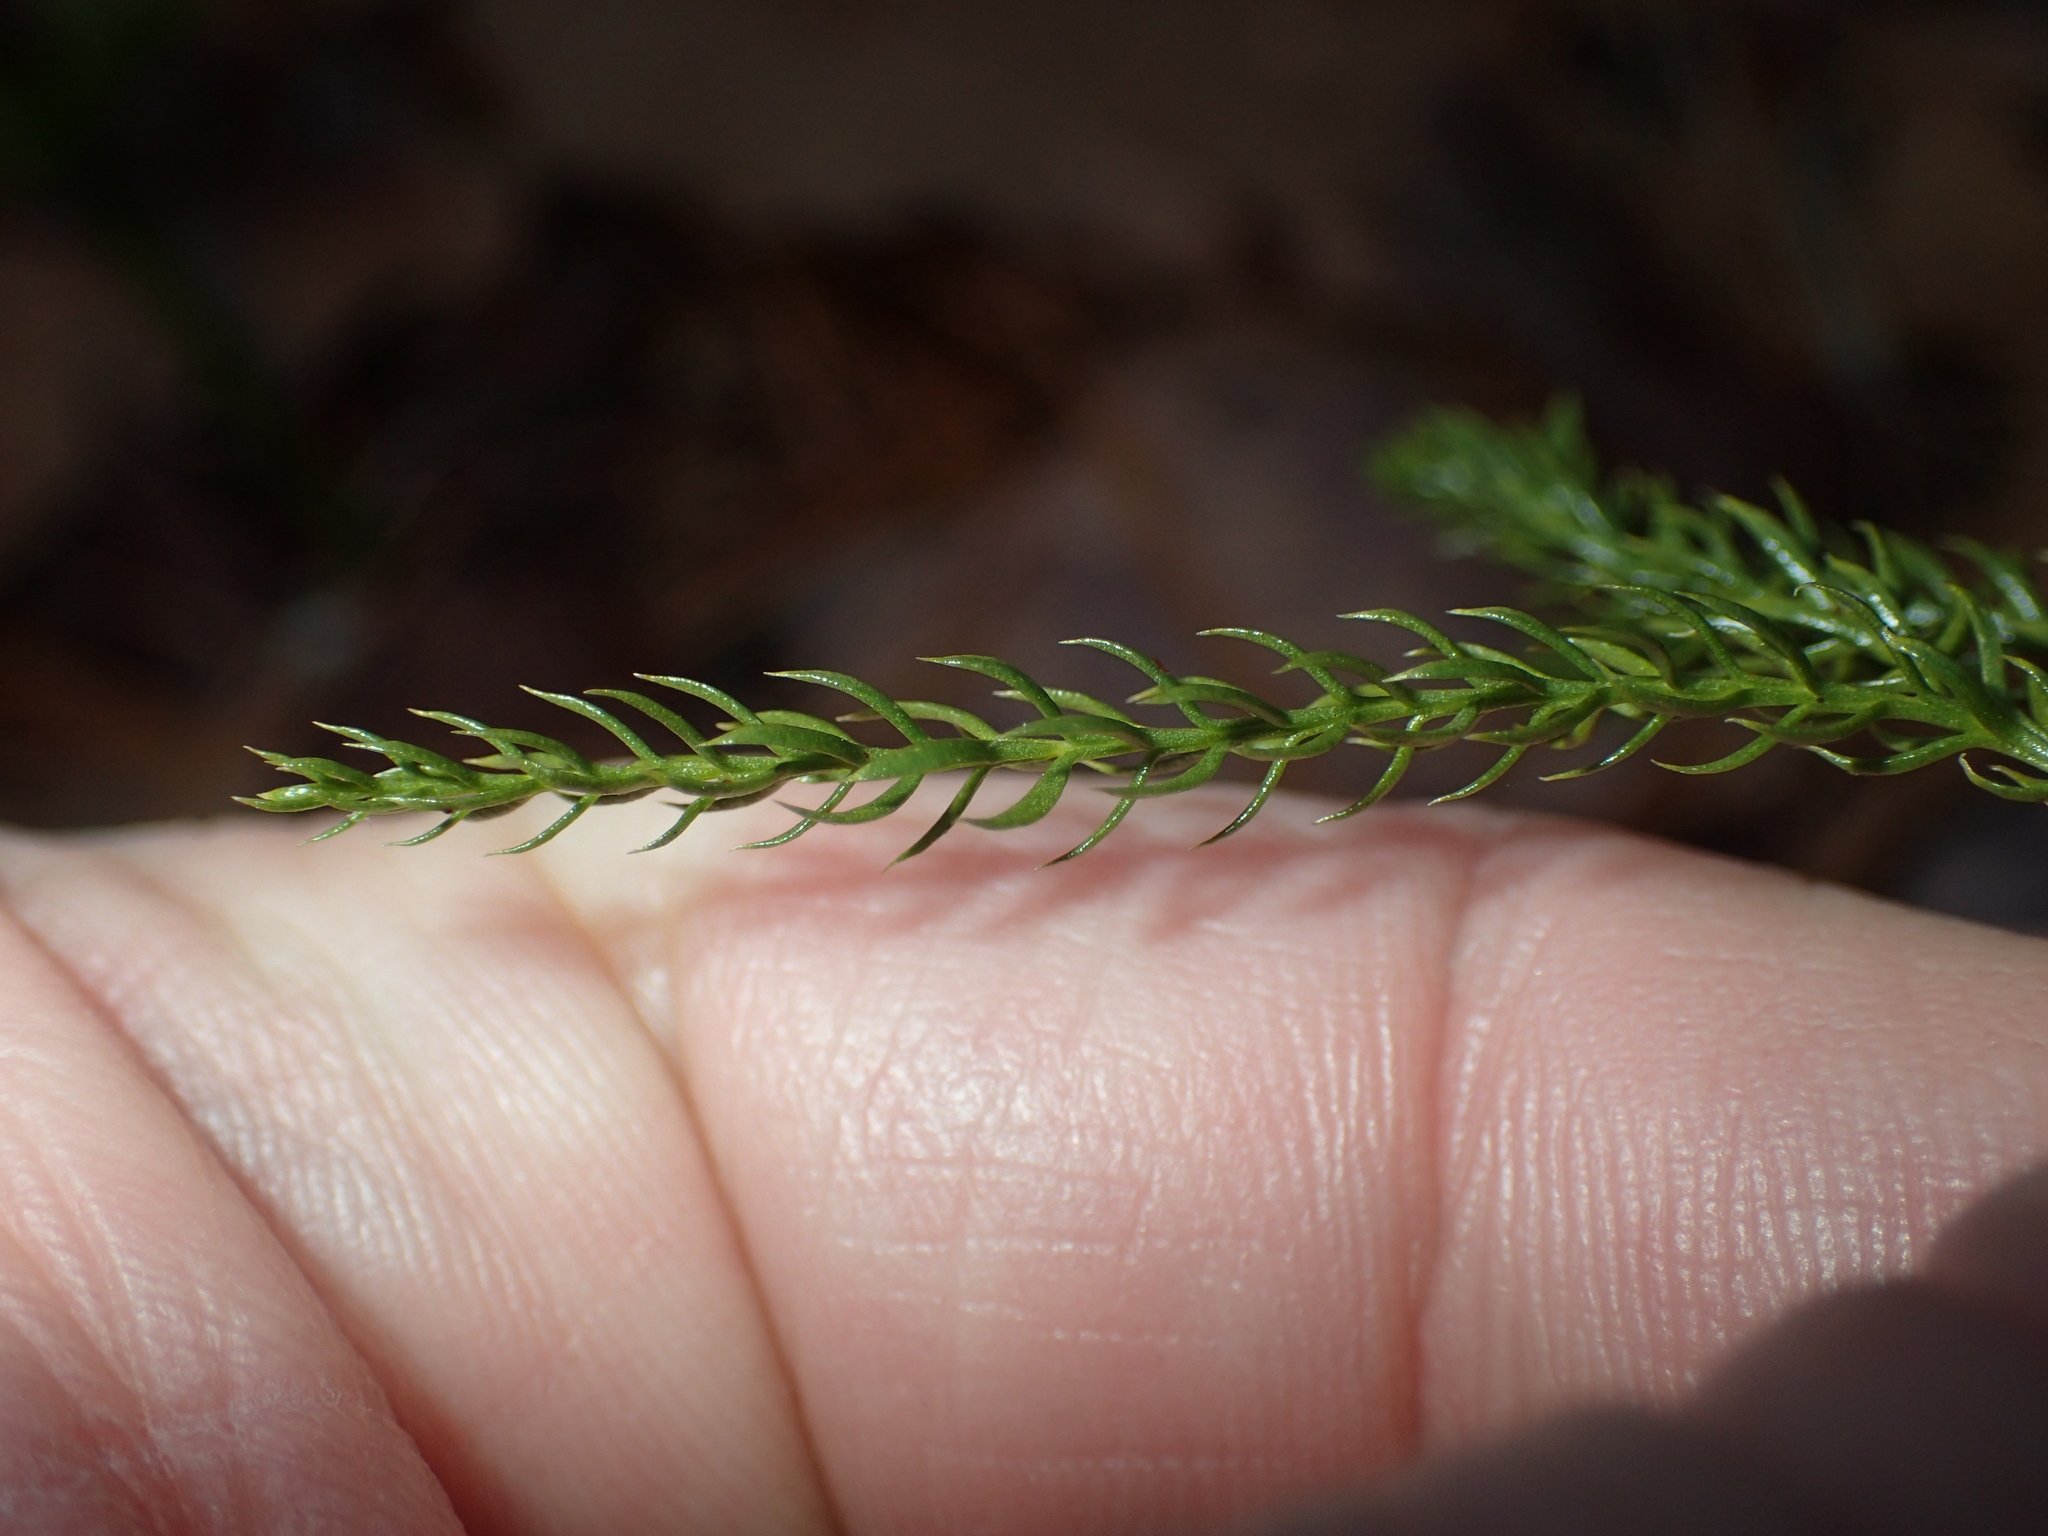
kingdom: Plantae
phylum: Tracheophyta
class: Lycopodiopsida
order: Lycopodiales
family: Lycopodiaceae
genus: Dendrolycopodium
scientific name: Dendrolycopodium hickeyi
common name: Hickey's clubmoss
